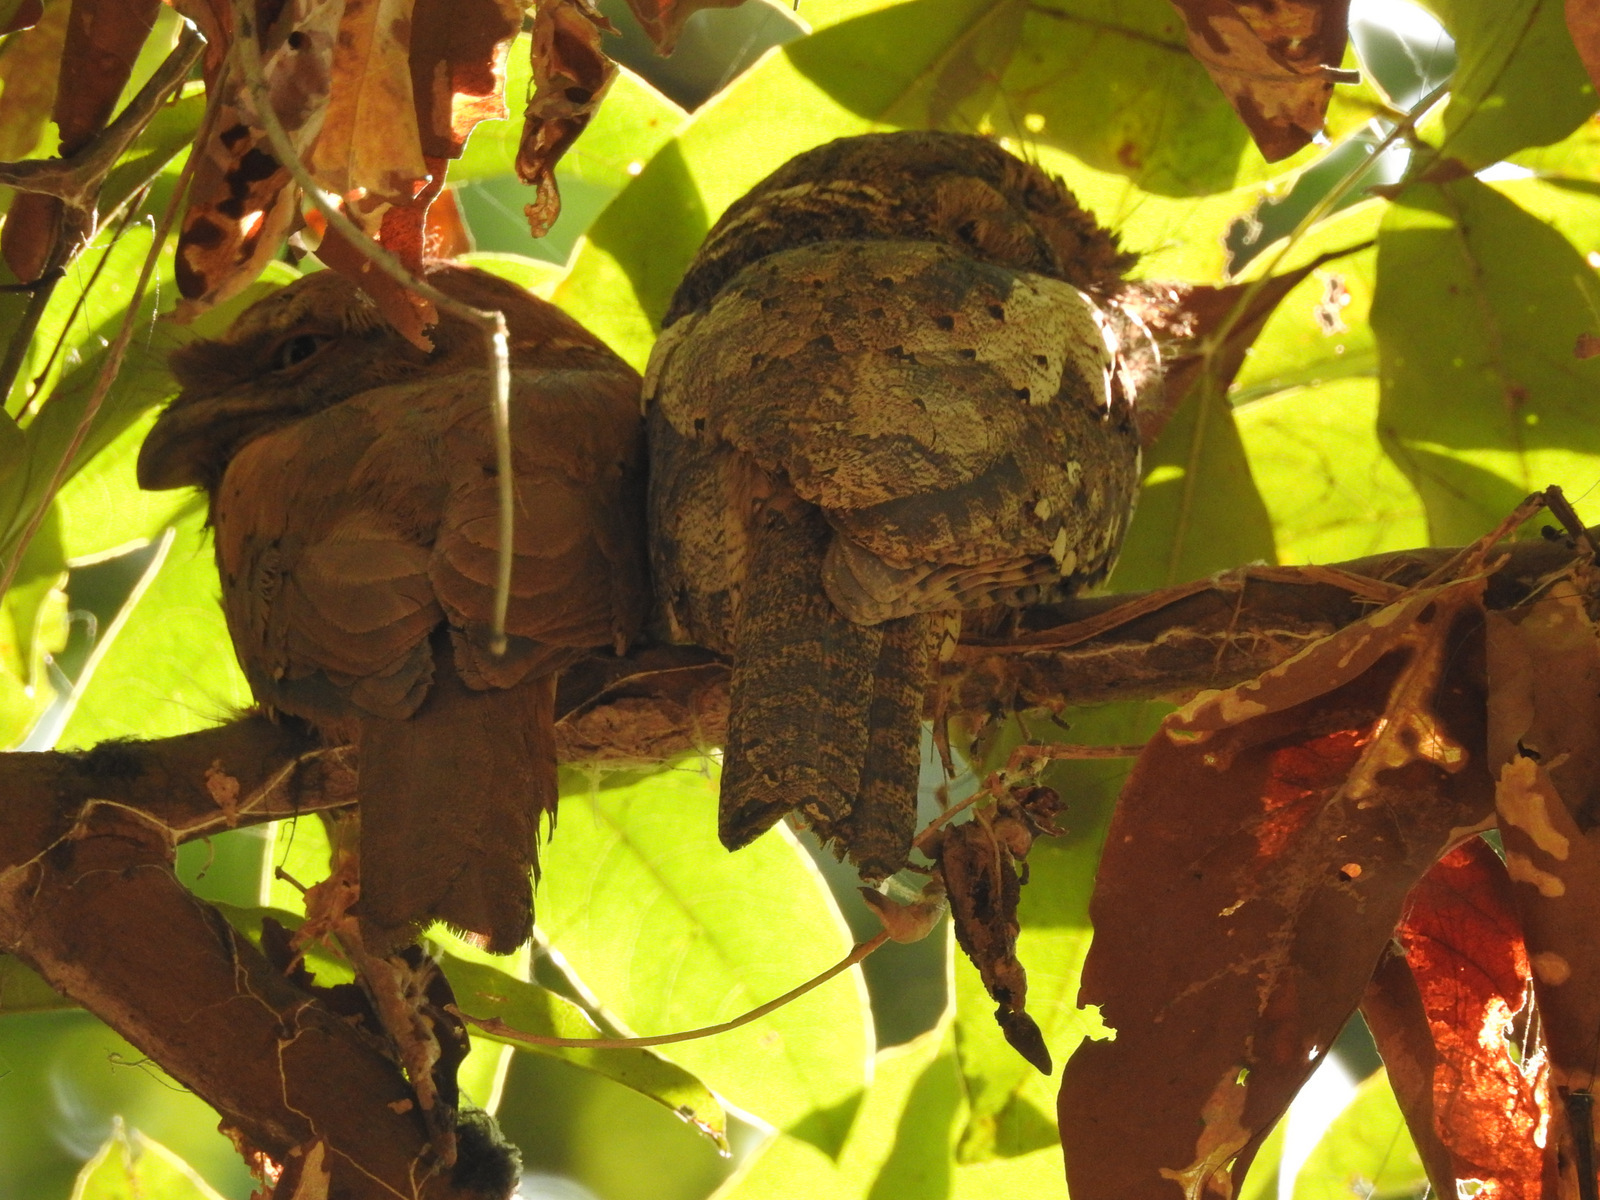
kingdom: Animalia
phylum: Chordata
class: Aves
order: Caprimulgiformes
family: Podargidae
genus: Batrachostomus
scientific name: Batrachostomus moniliger
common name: Sri lanka frogmouth
